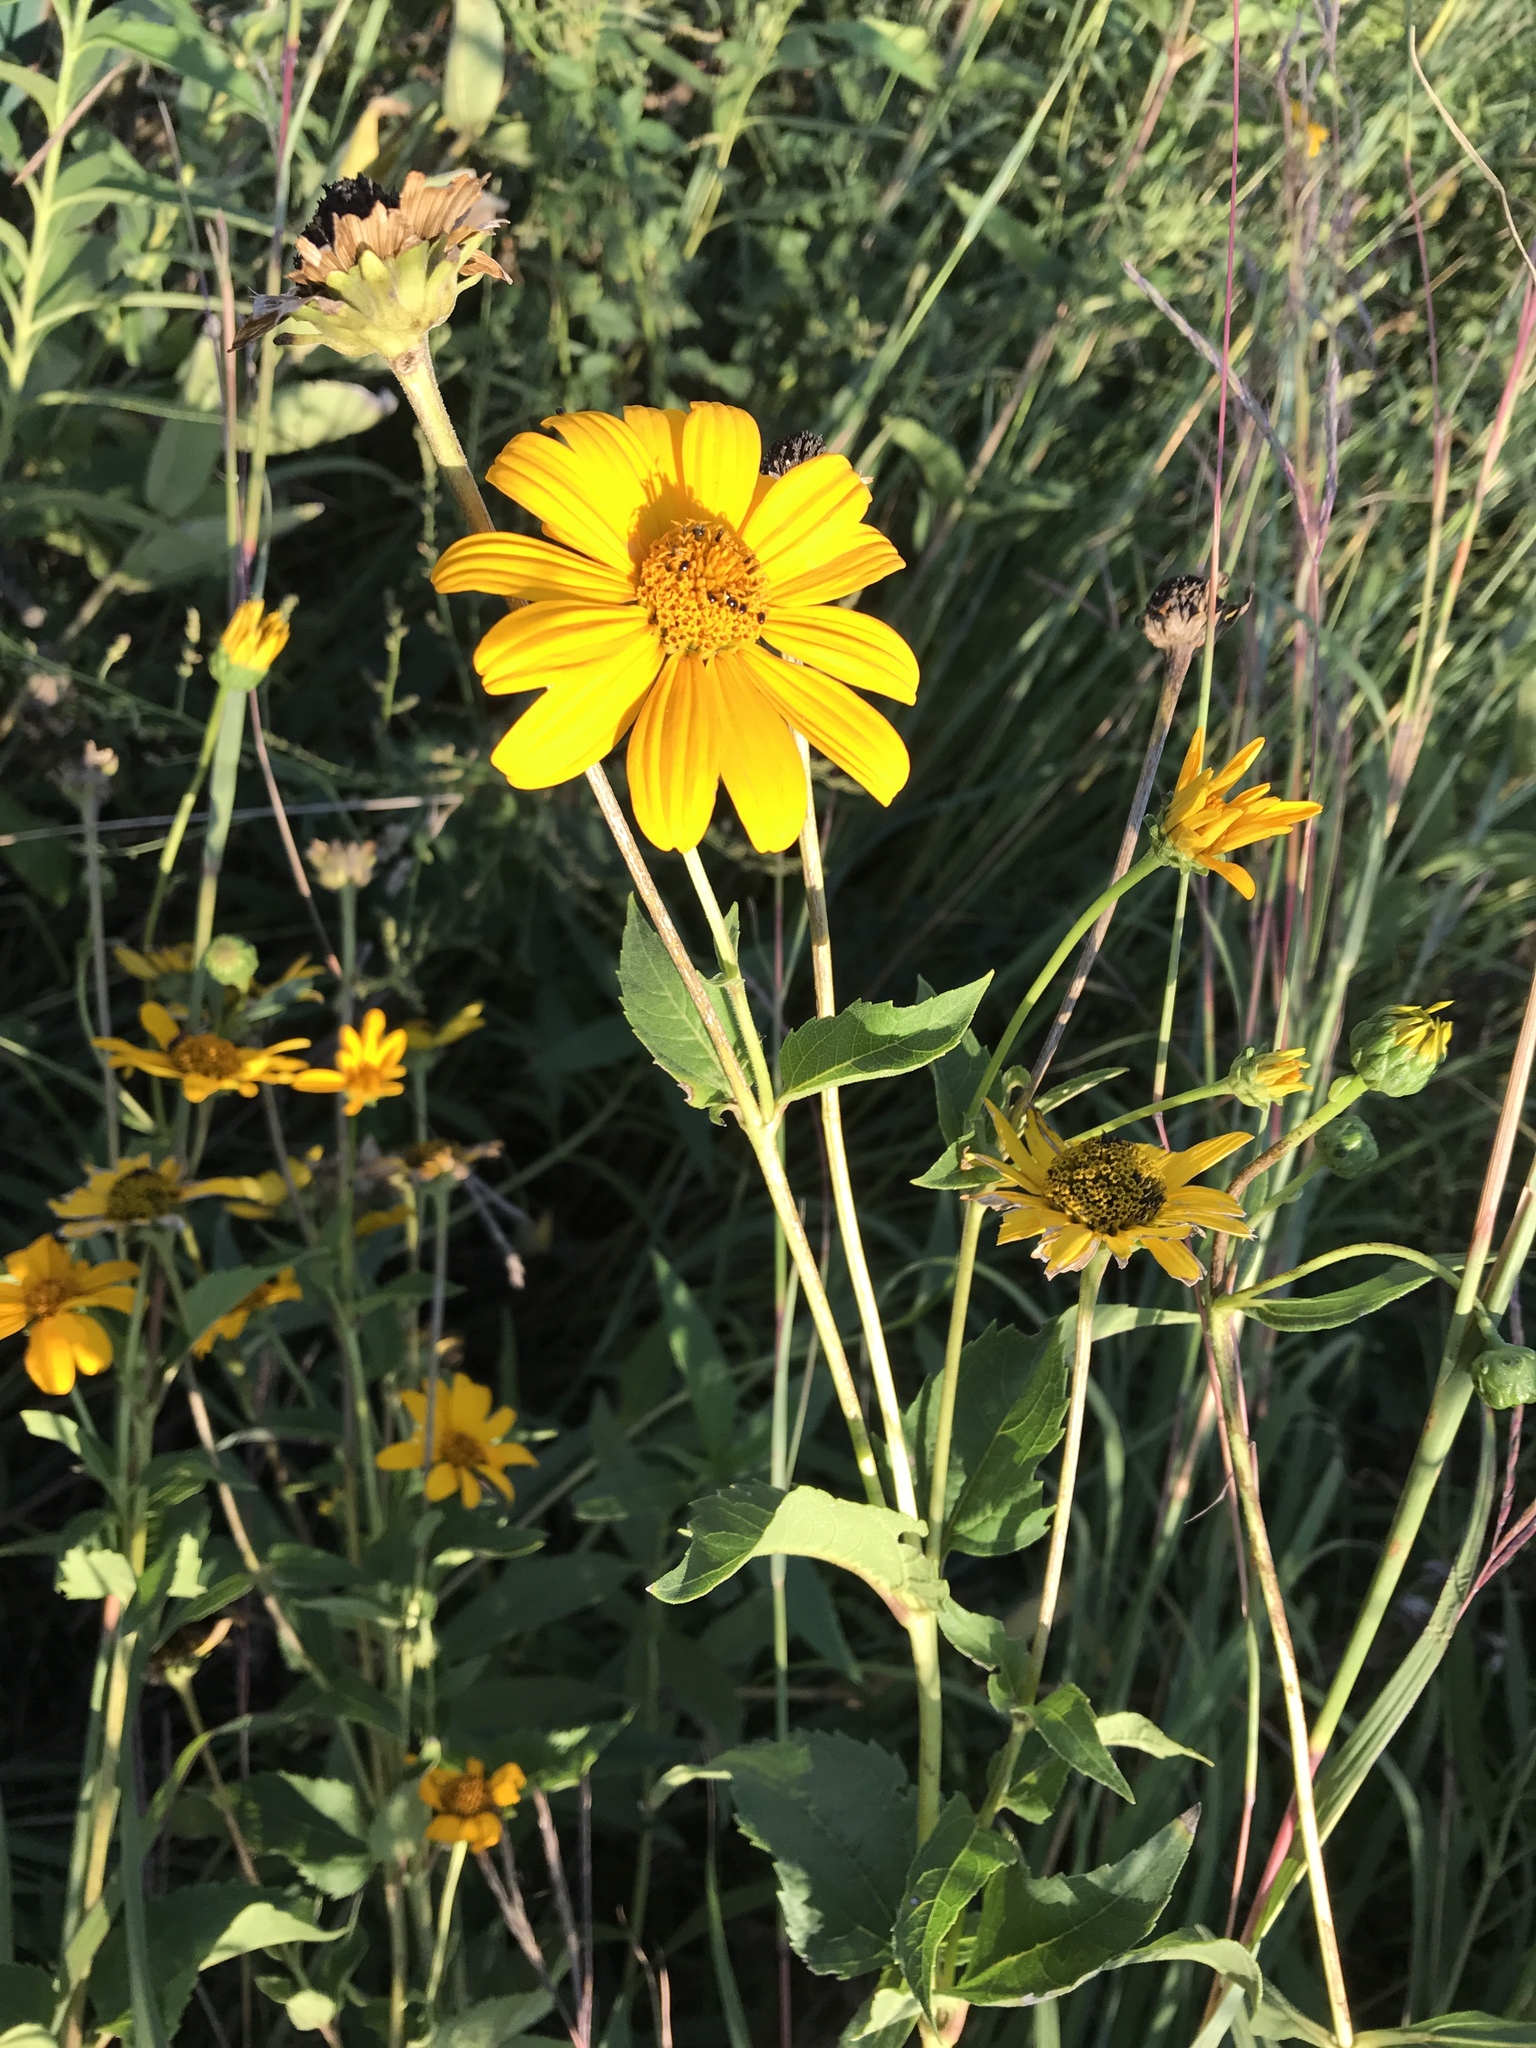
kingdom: Plantae
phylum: Tracheophyta
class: Magnoliopsida
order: Asterales
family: Asteraceae
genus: Heliopsis
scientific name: Heliopsis helianthoides
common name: False sunflower
